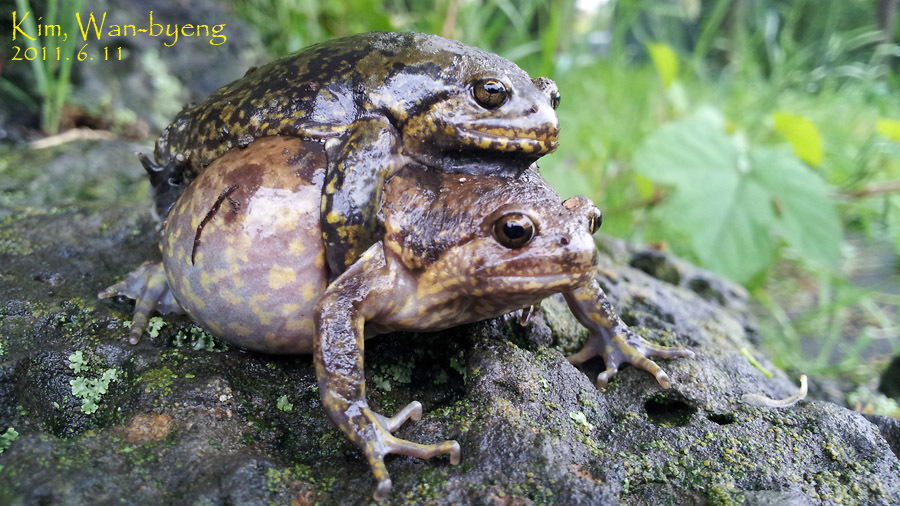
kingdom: Animalia
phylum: Chordata
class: Amphibia
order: Anura
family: Microhylidae
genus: Kaloula
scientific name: Kaloula borealis
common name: Boreal digging frog
